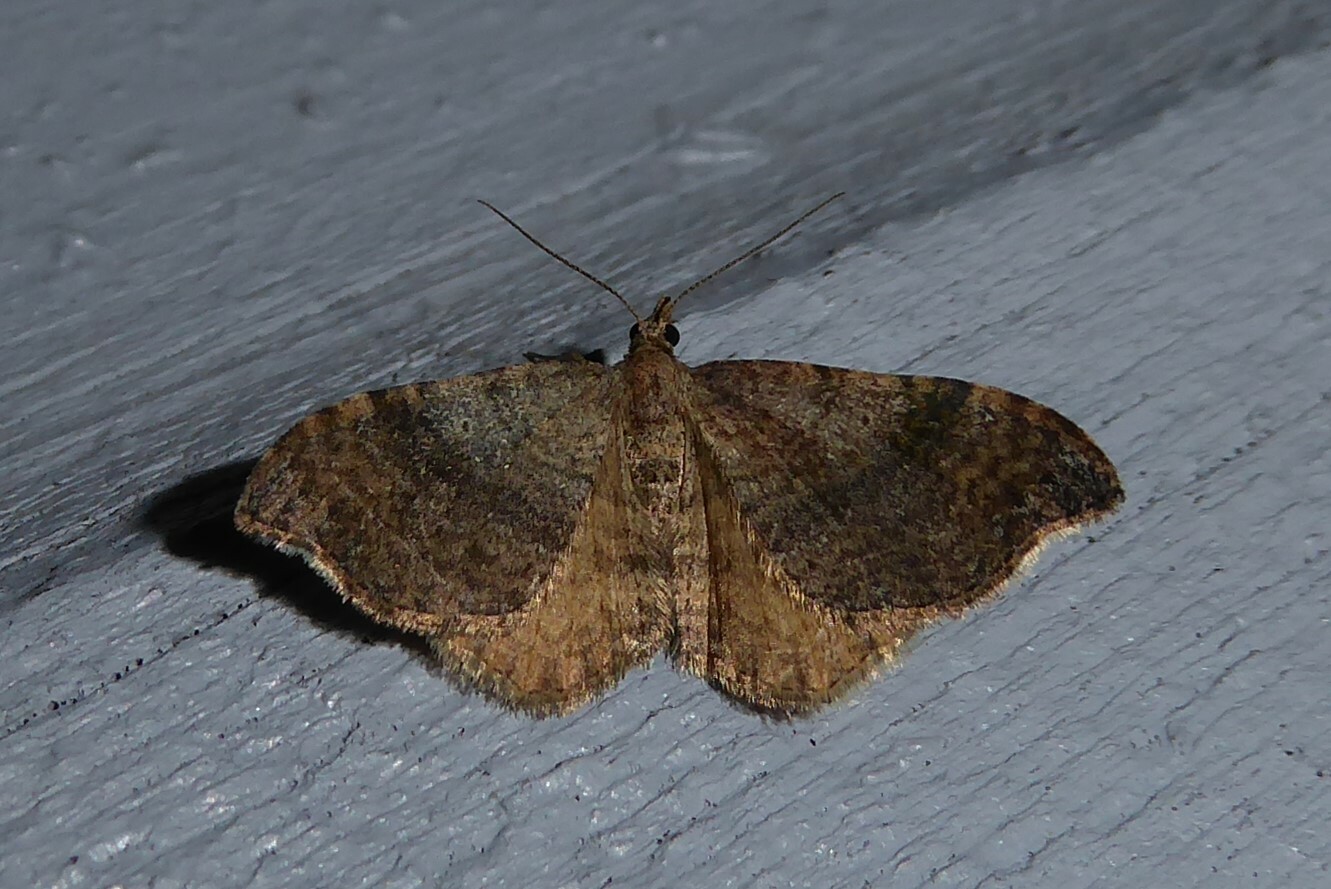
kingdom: Animalia
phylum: Arthropoda
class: Insecta
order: Lepidoptera
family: Geometridae
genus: Homodotis
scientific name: Homodotis megaspilata
